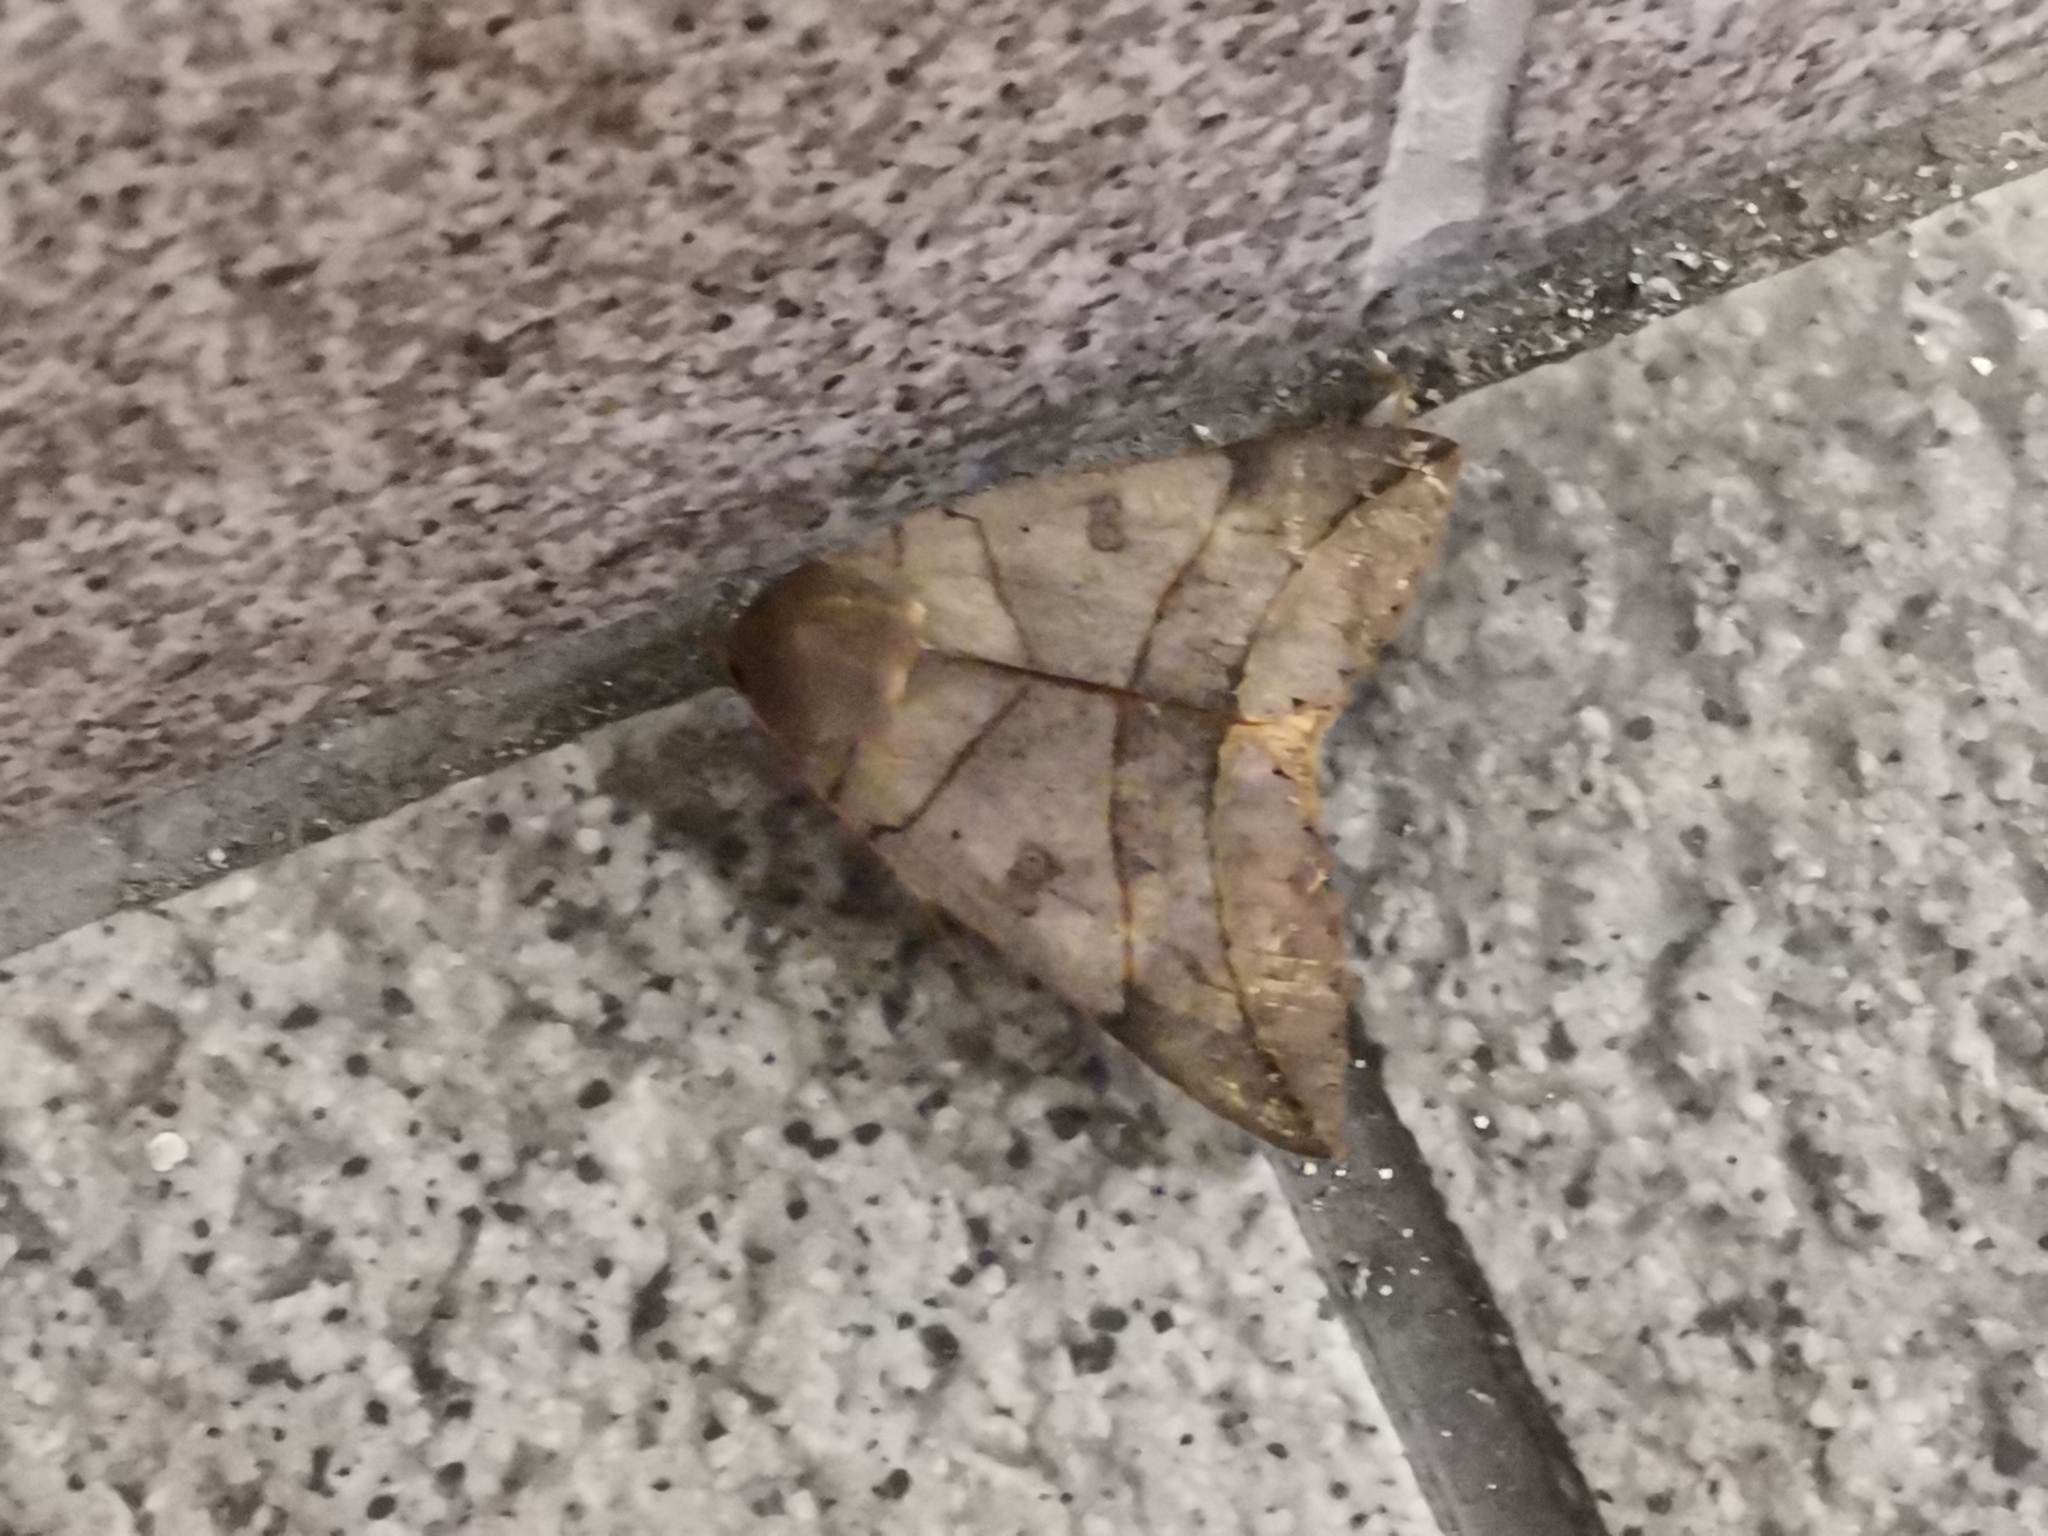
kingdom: Animalia
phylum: Arthropoda
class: Insecta
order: Lepidoptera
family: Erebidae
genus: Thyas
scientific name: Thyas juno
